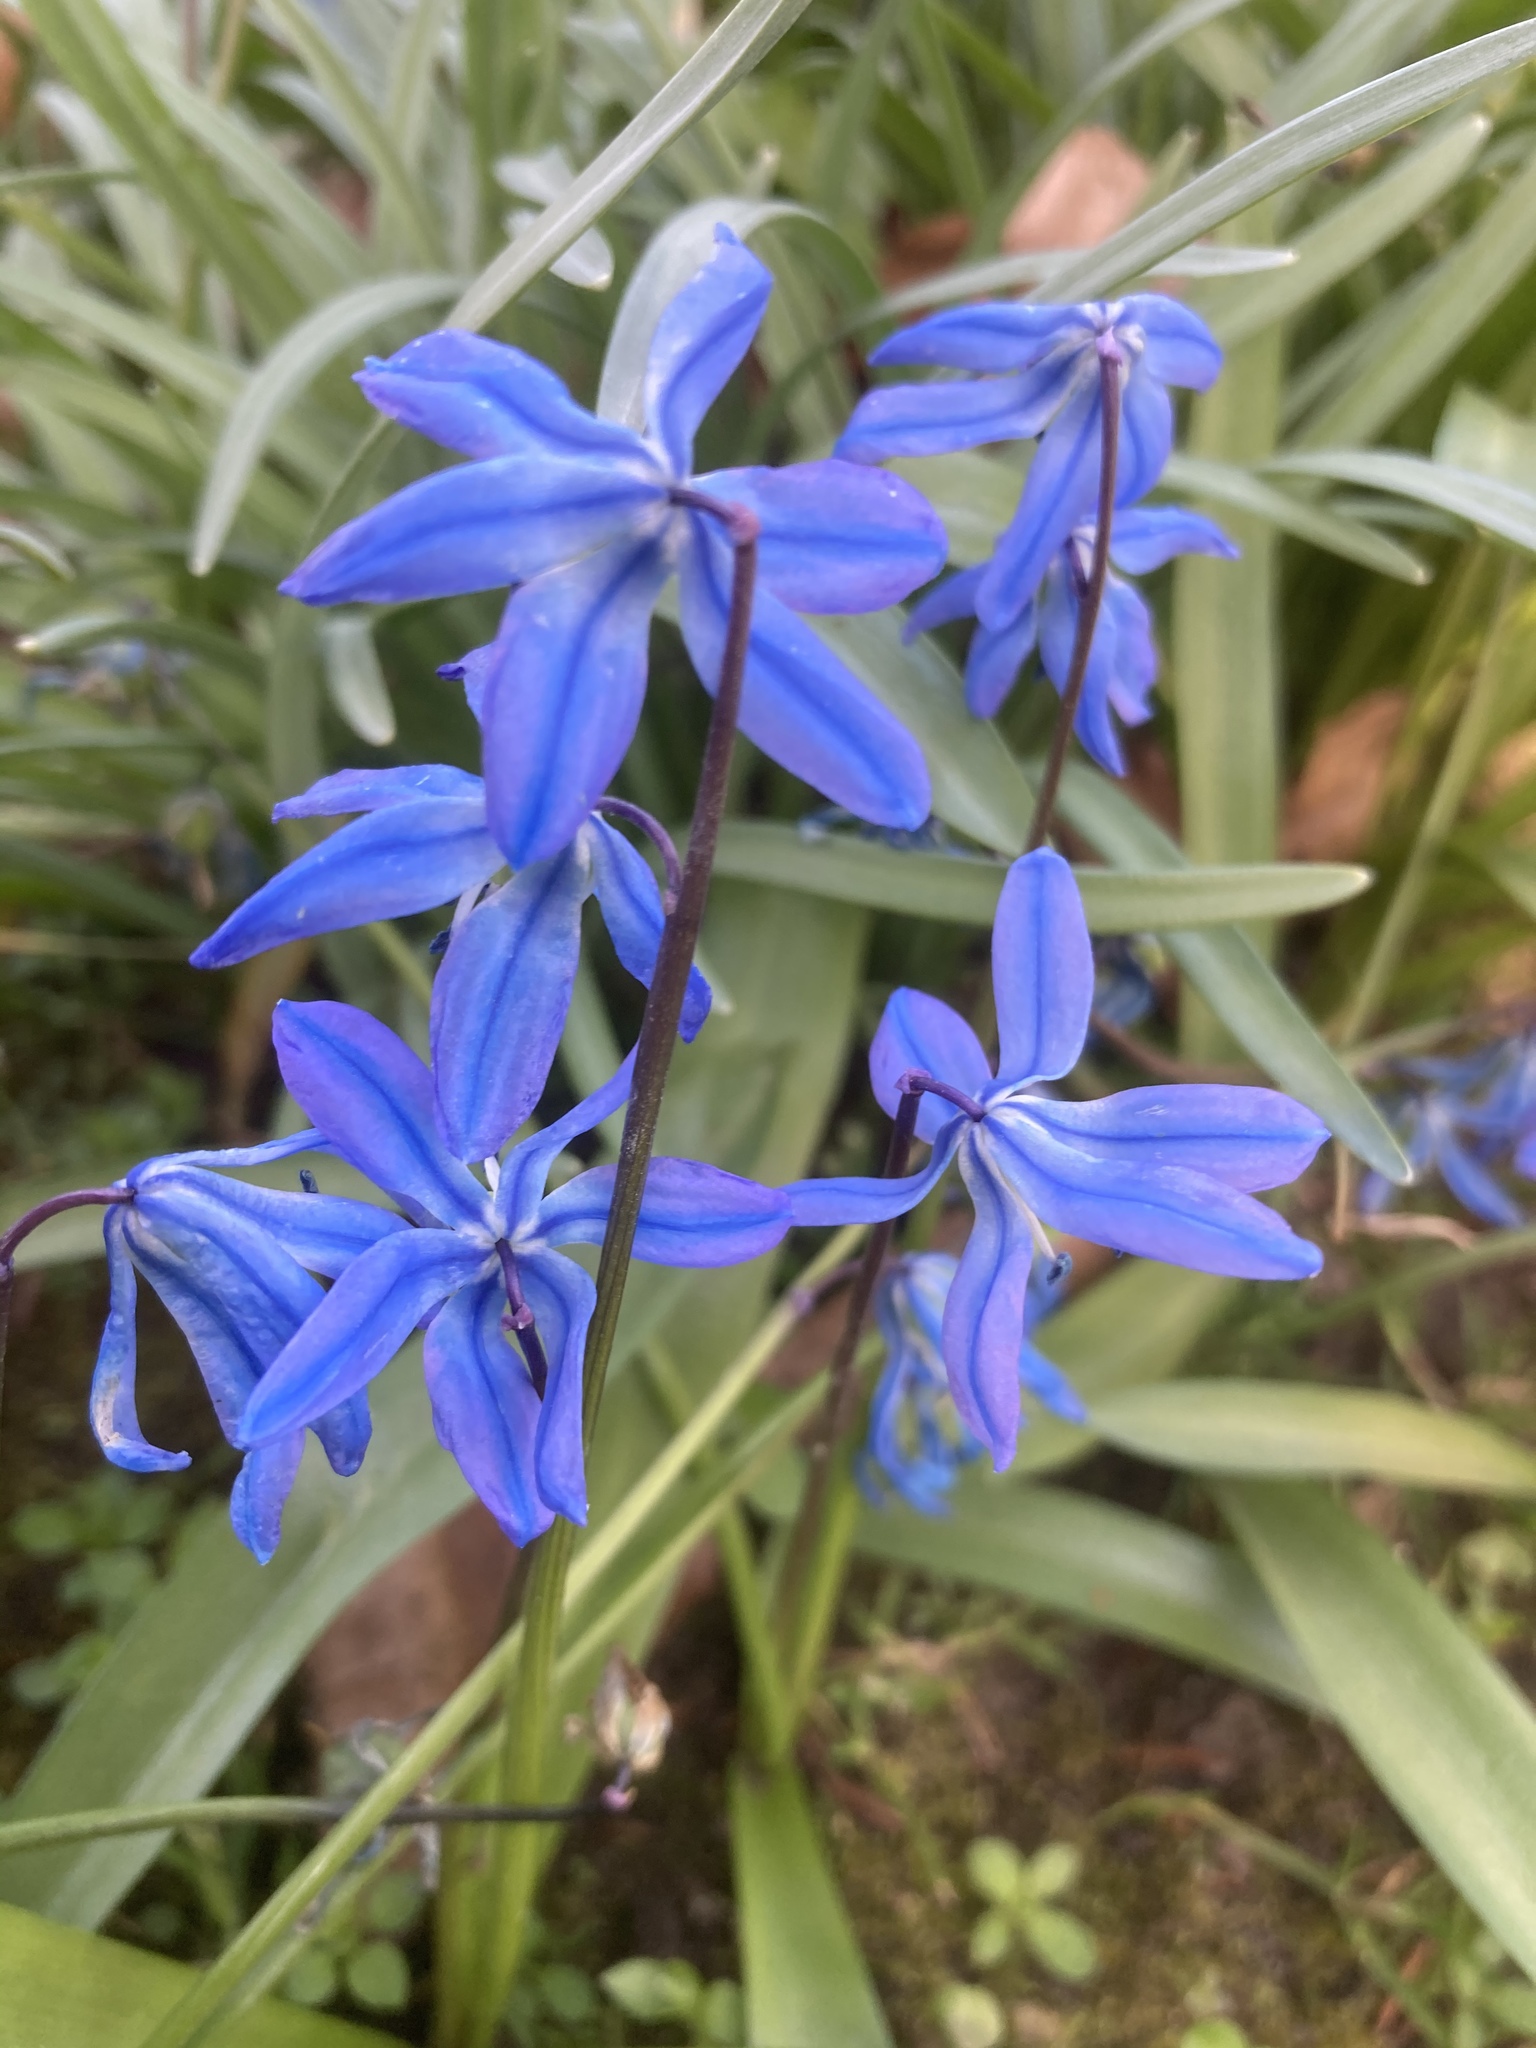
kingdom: Plantae
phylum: Tracheophyta
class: Liliopsida
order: Asparagales
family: Asparagaceae
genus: Scilla
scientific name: Scilla siberica
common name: Siberian squill
